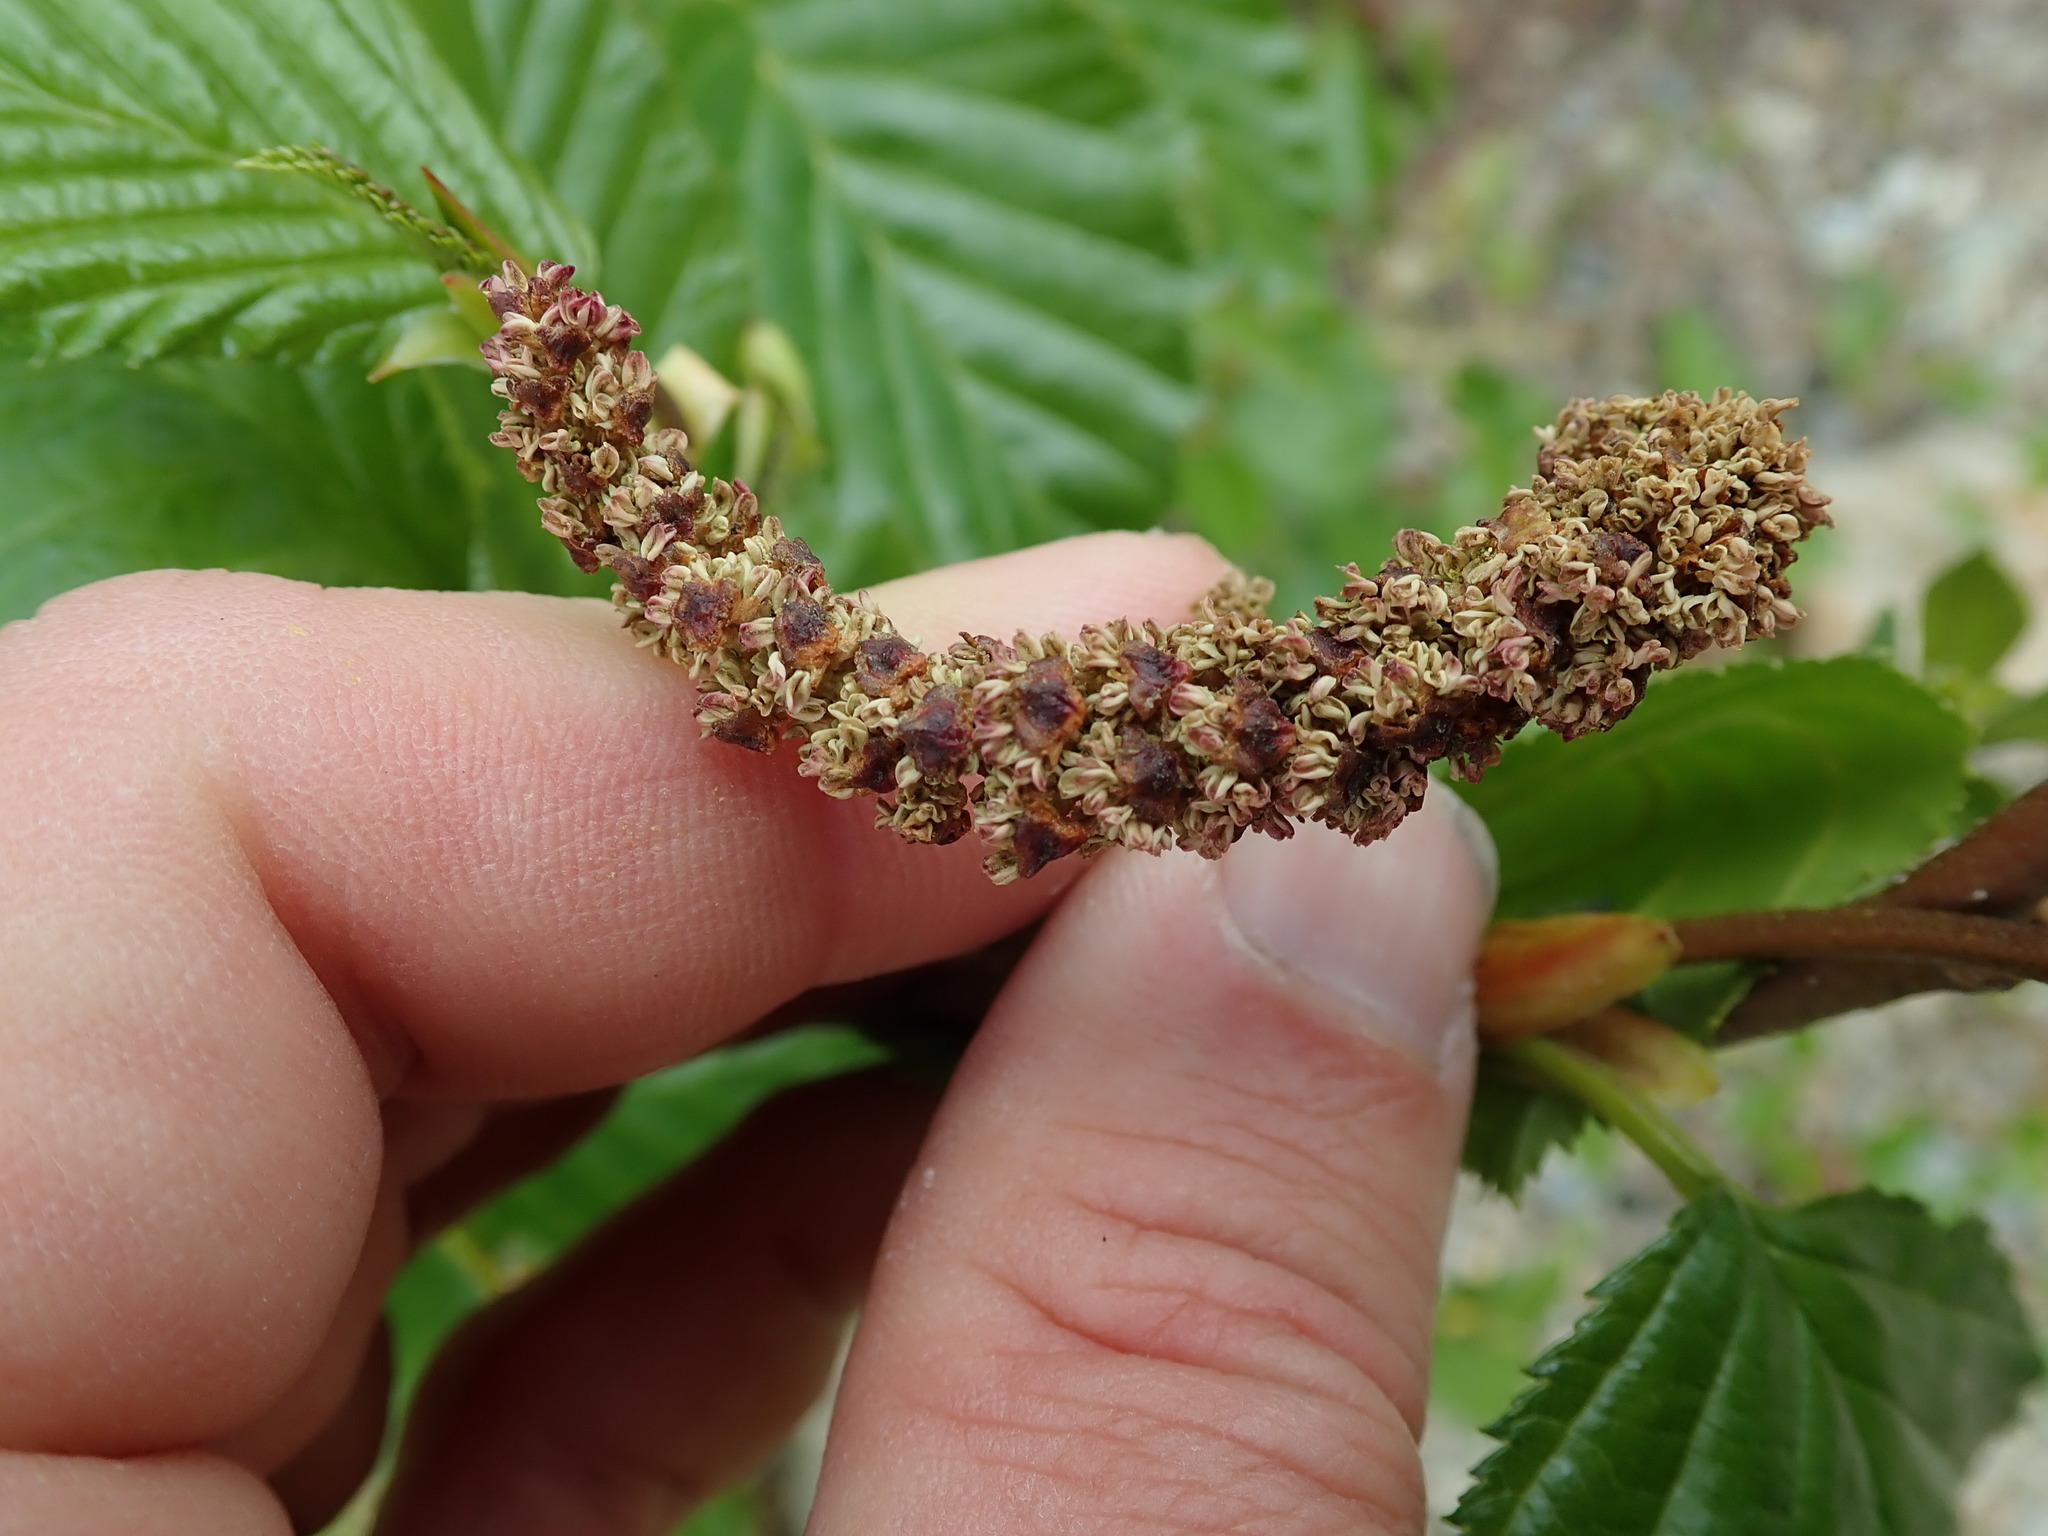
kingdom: Plantae
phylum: Tracheophyta
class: Magnoliopsida
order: Fagales
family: Betulaceae
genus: Alnus
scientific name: Alnus alnobetula
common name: Green alder
